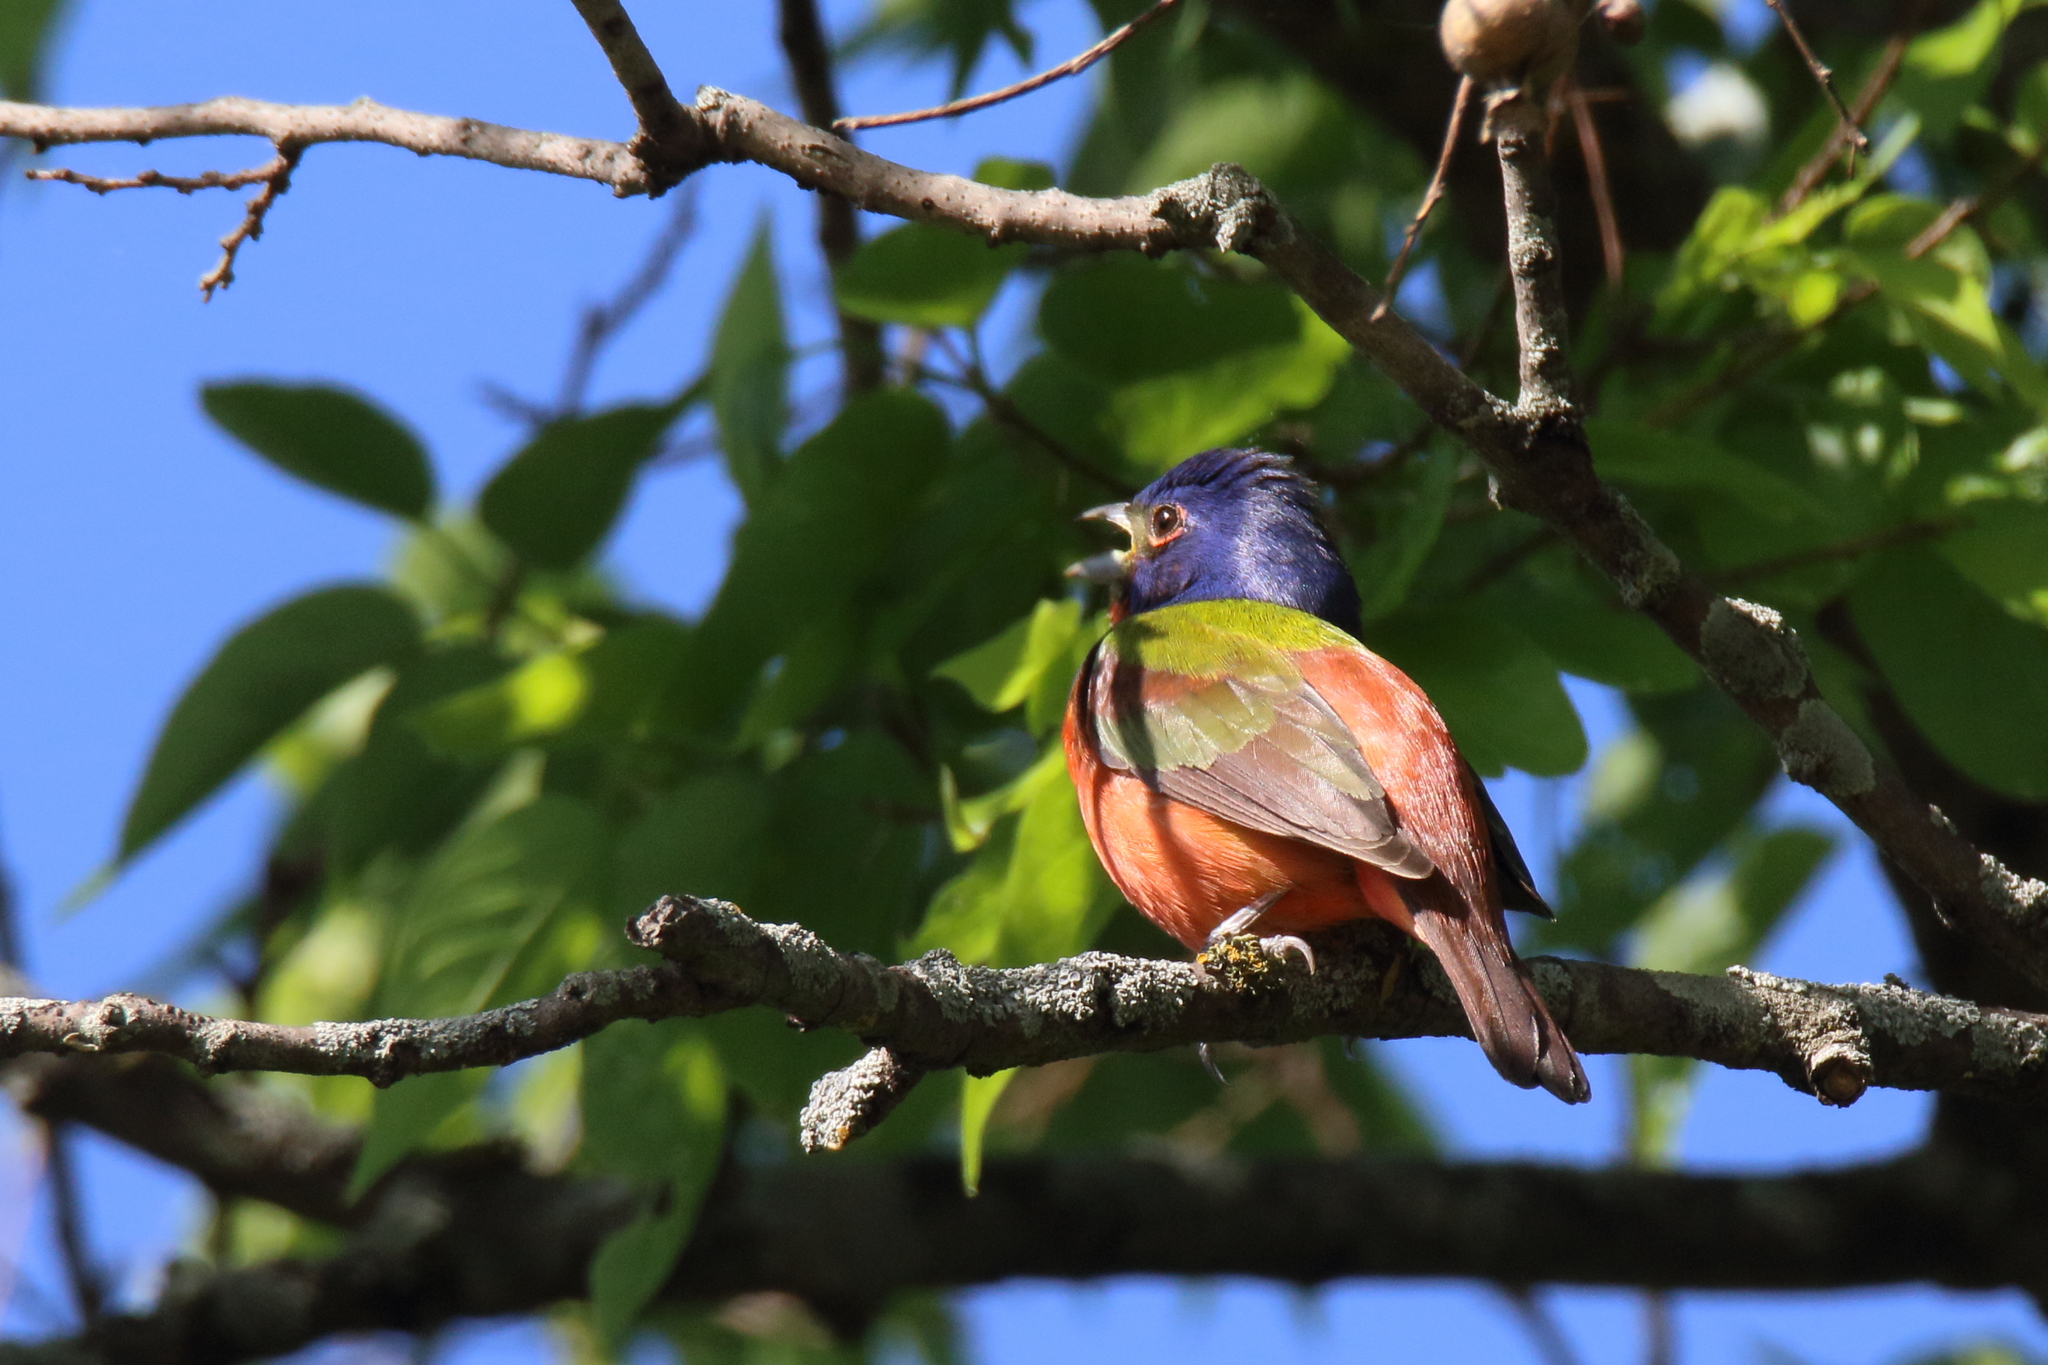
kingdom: Animalia
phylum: Chordata
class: Aves
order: Passeriformes
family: Cardinalidae
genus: Passerina
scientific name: Passerina ciris
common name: Painted bunting
